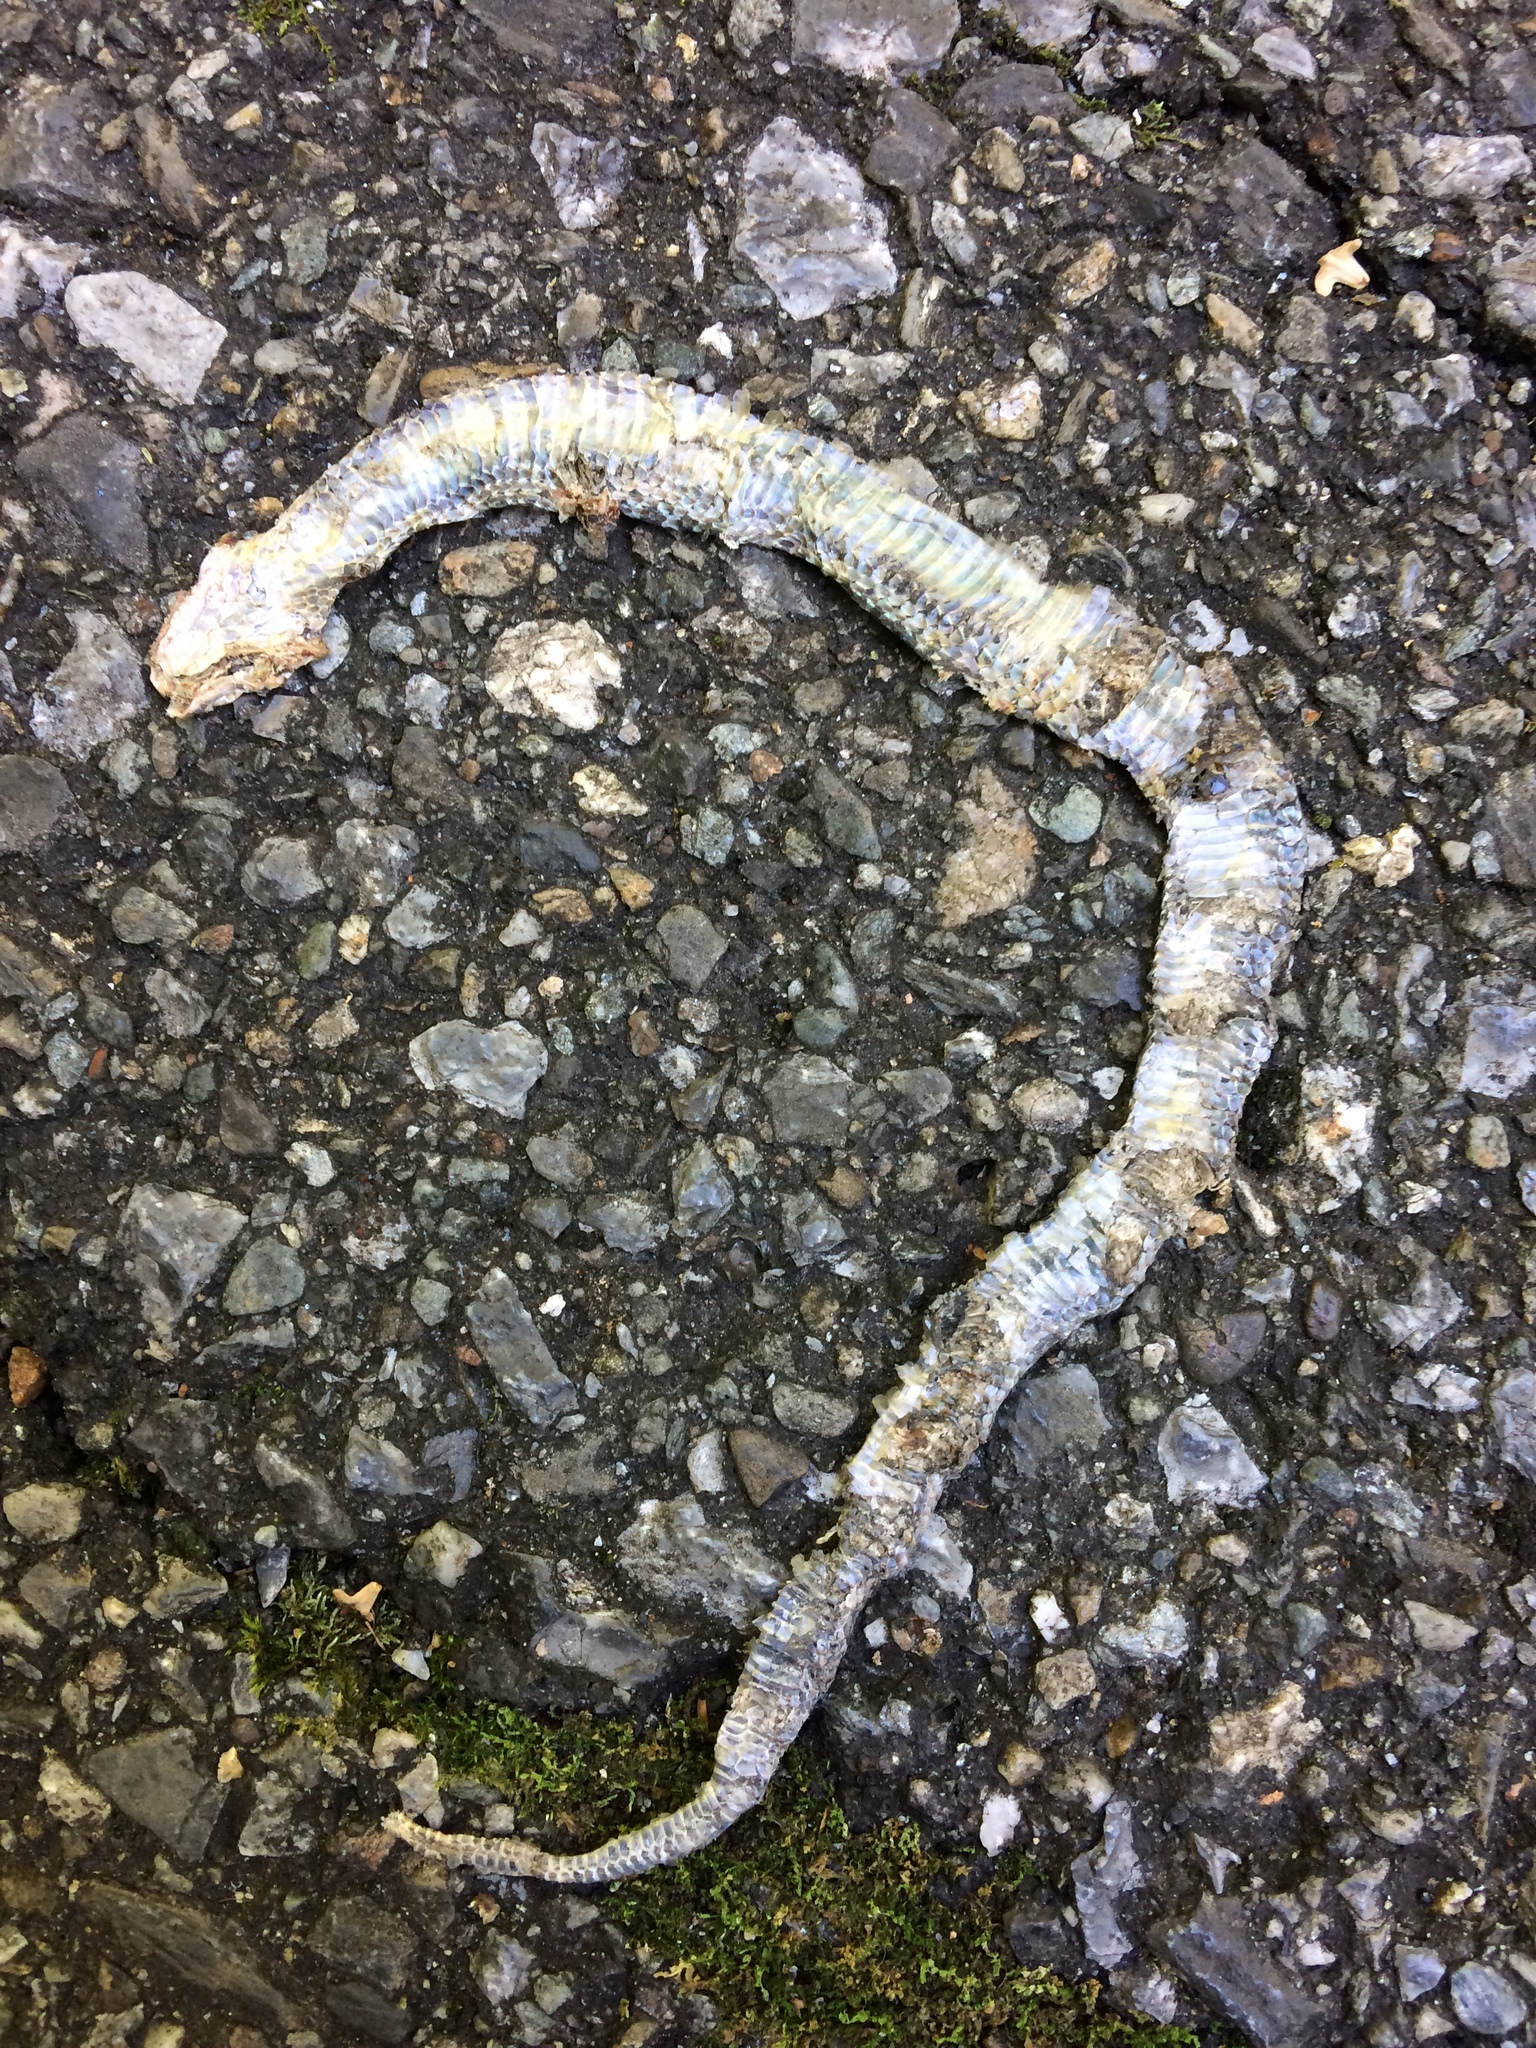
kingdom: Animalia
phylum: Chordata
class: Squamata
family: Colubridae
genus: Thamnophis
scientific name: Thamnophis sirtalis
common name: Common garter snake
